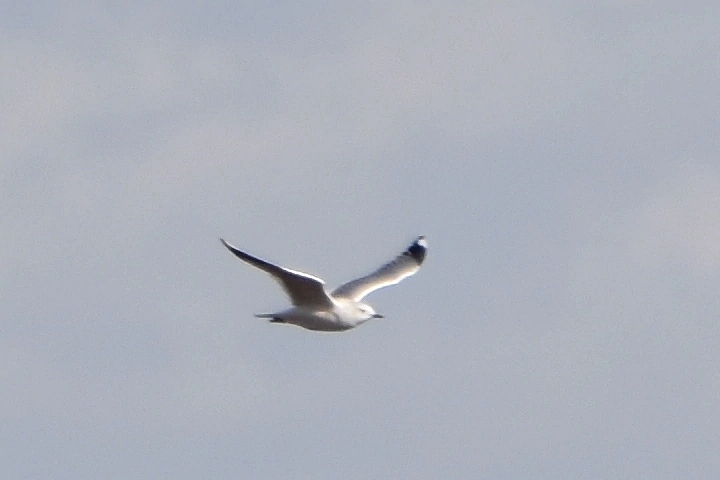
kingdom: Animalia
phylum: Chordata
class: Aves
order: Charadriiformes
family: Laridae
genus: Larus
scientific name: Larus canus
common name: Mew gull
